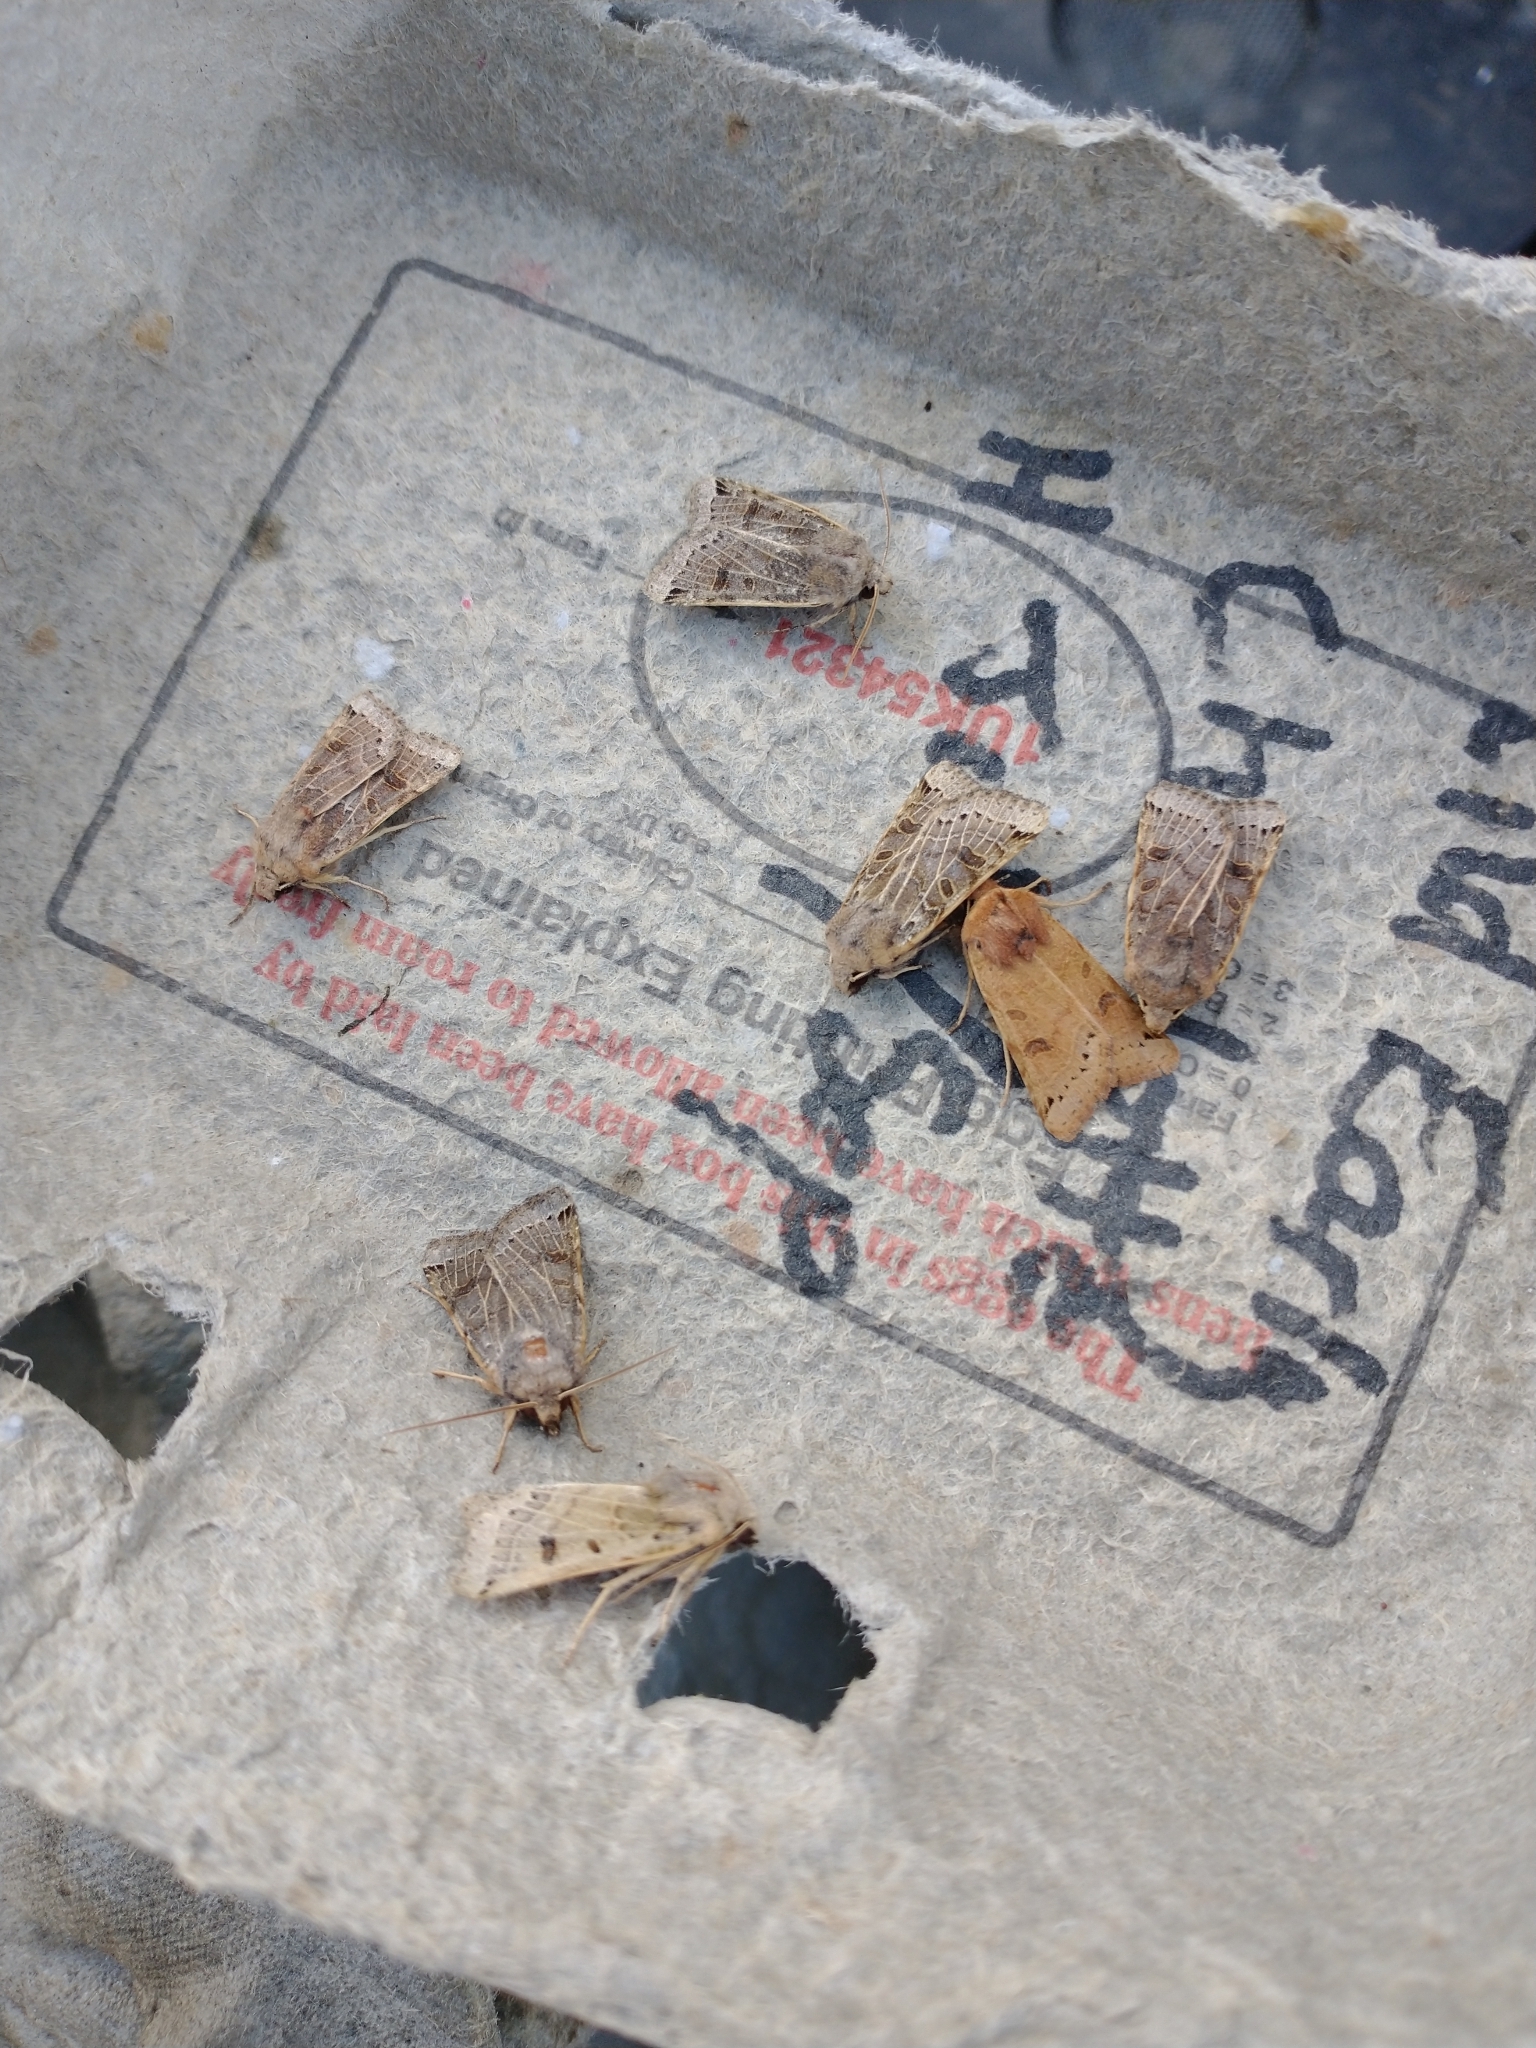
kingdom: Animalia
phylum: Arthropoda
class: Insecta
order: Lepidoptera
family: Noctuidae
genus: Agrochola
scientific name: Agrochola lunosa
